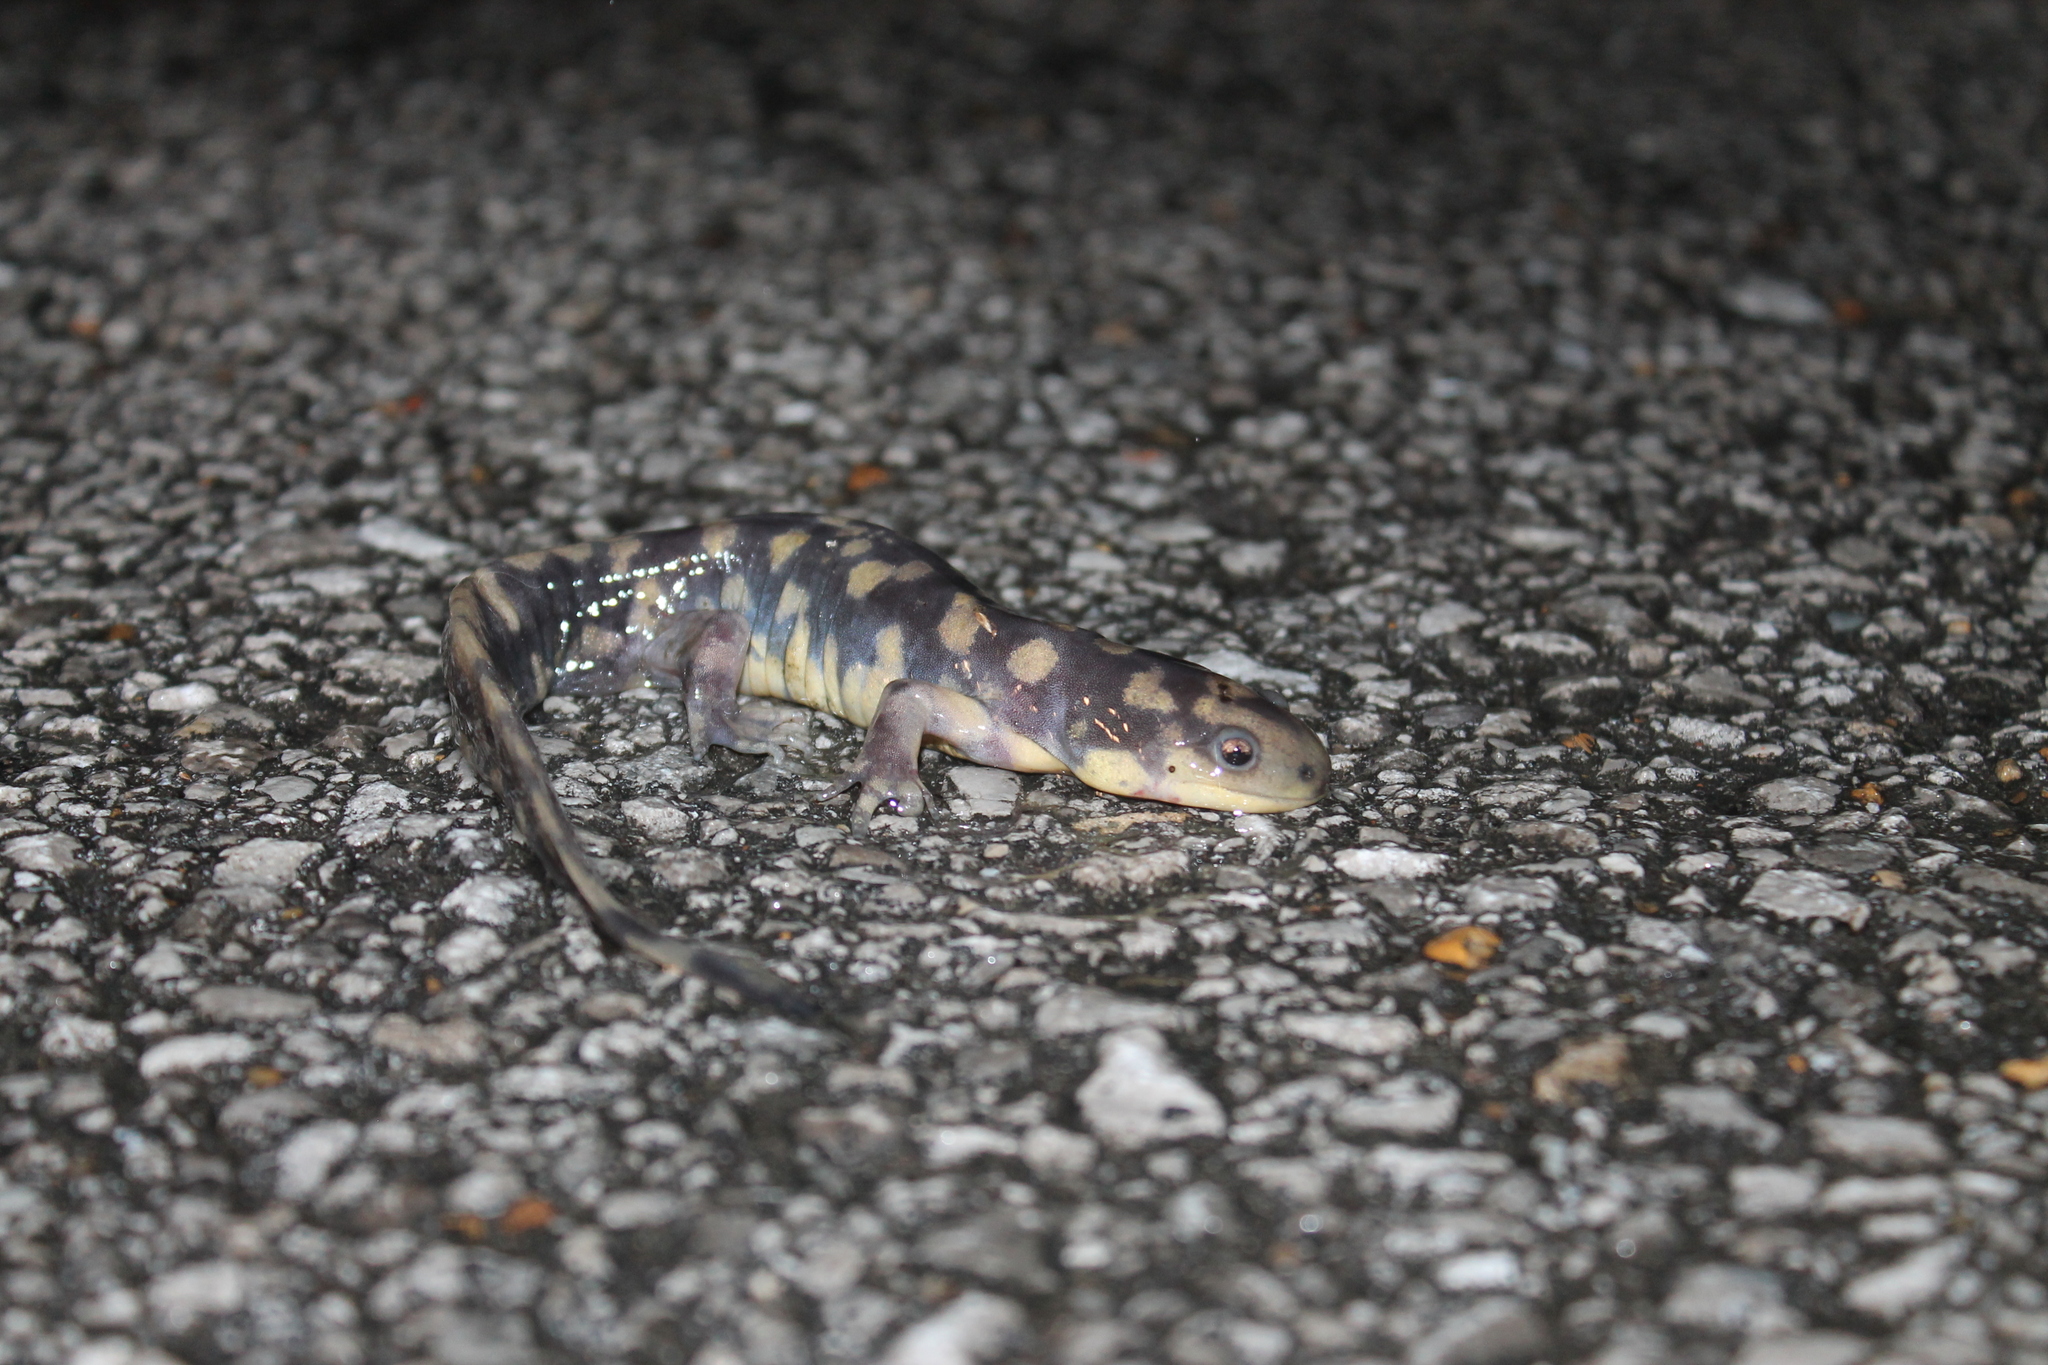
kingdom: Animalia
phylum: Chordata
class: Amphibia
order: Caudata
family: Ambystomatidae
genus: Ambystoma
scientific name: Ambystoma tigrinum
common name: Tiger salamander
